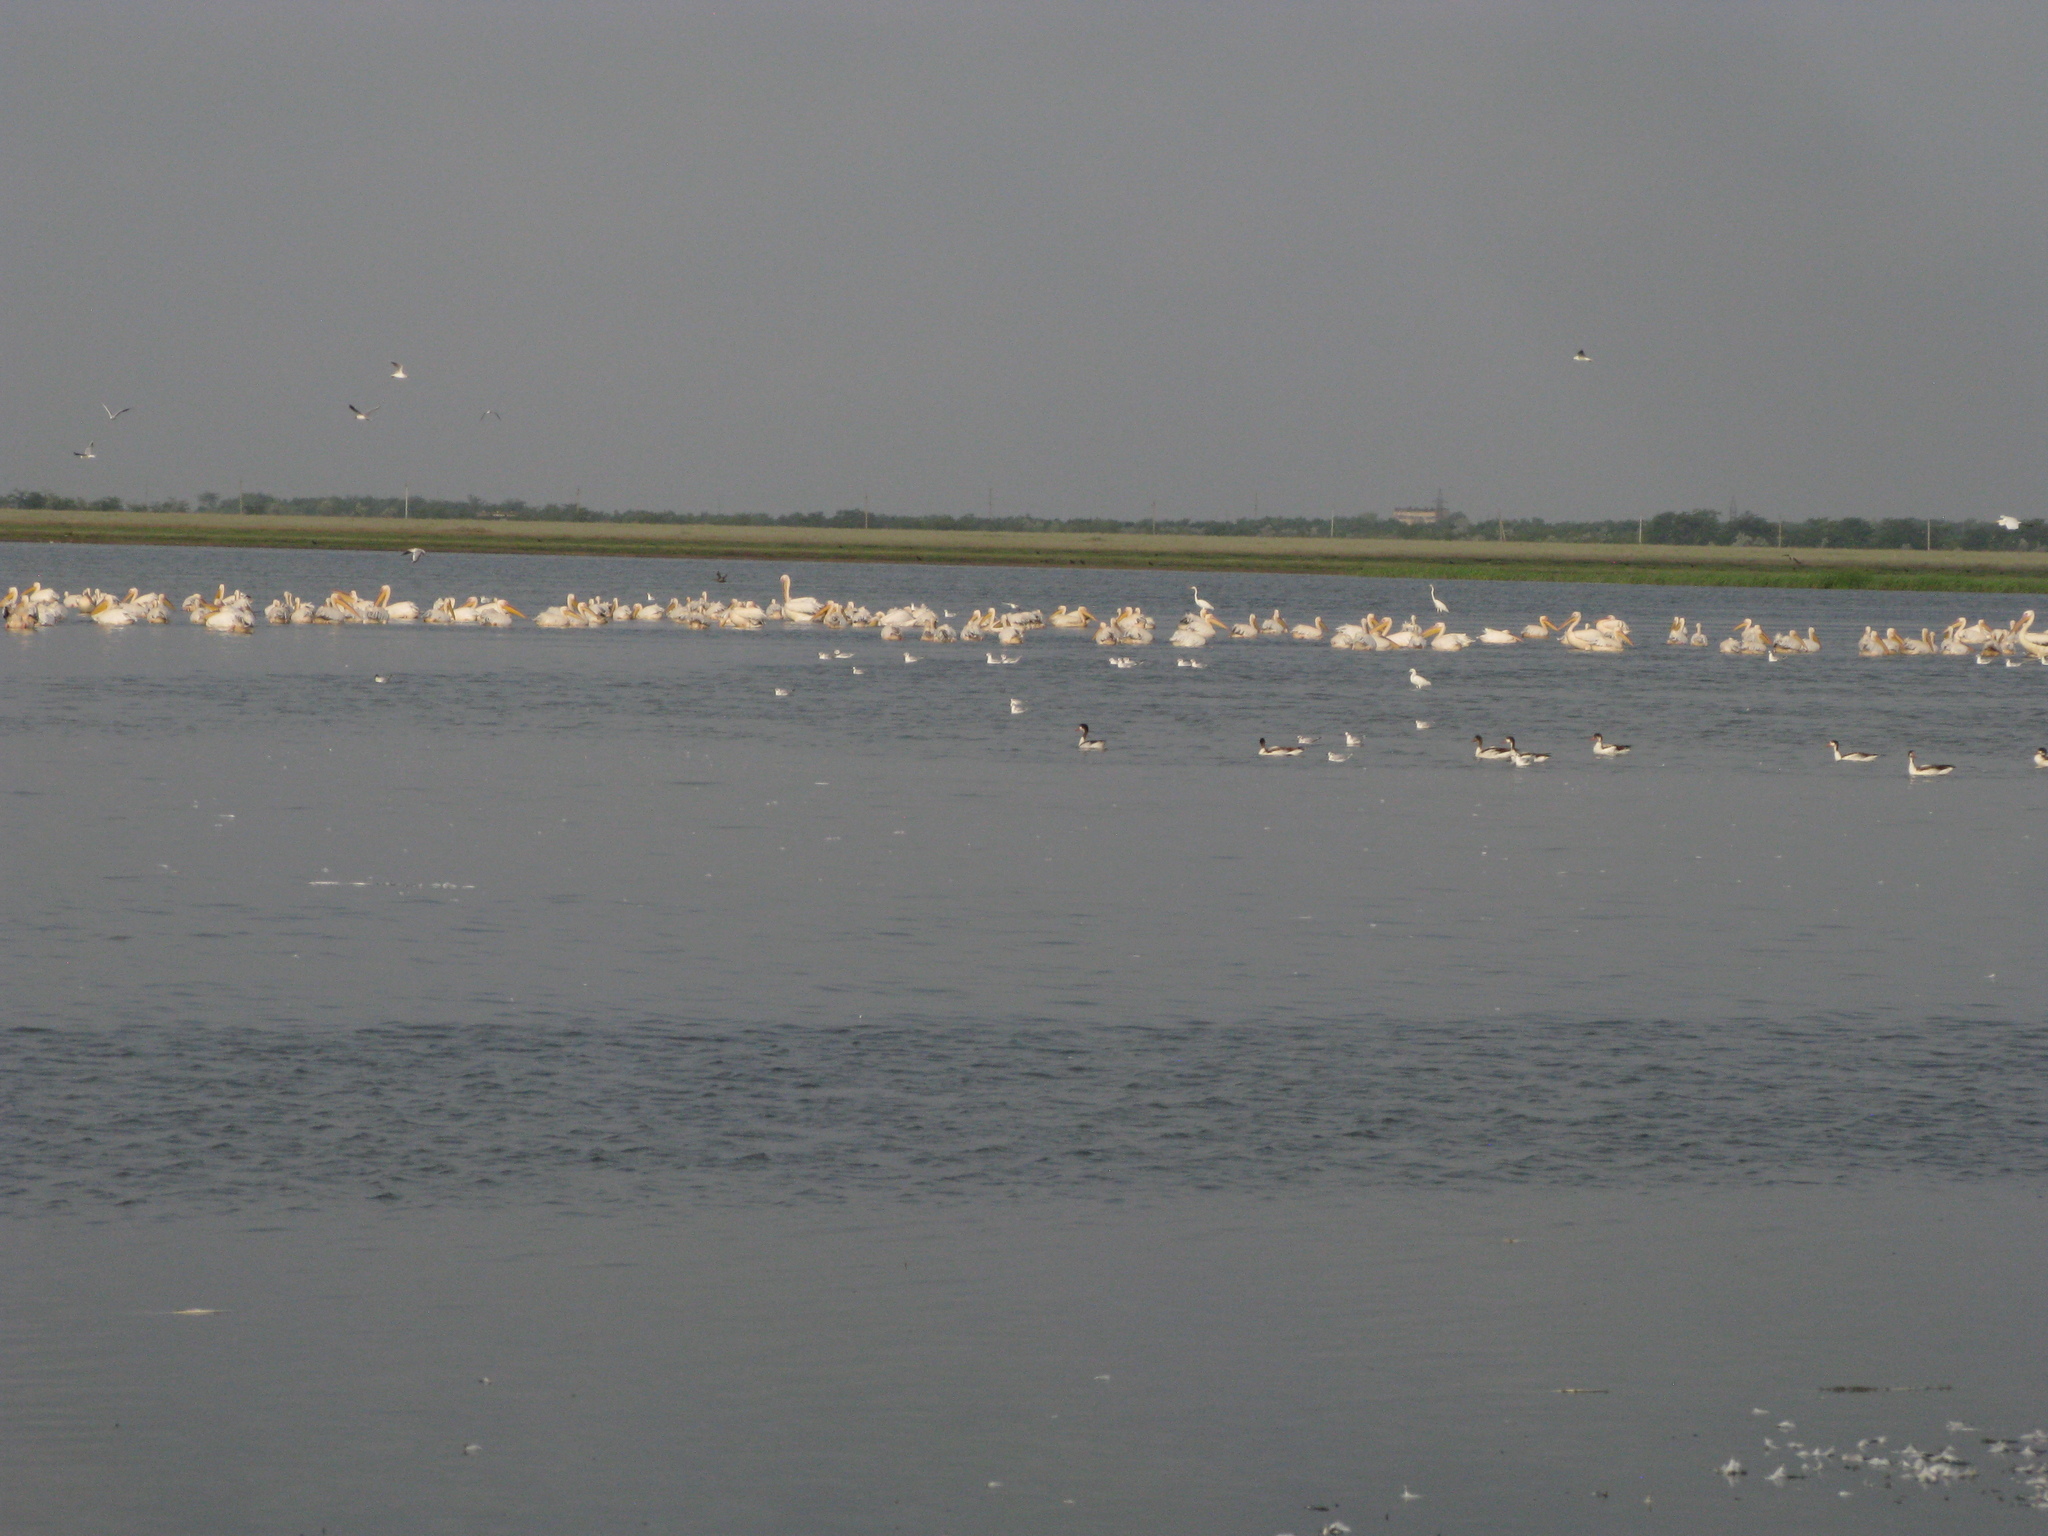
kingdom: Animalia
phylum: Chordata
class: Aves
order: Anseriformes
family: Anatidae
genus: Tadorna
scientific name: Tadorna tadorna
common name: Common shelduck
